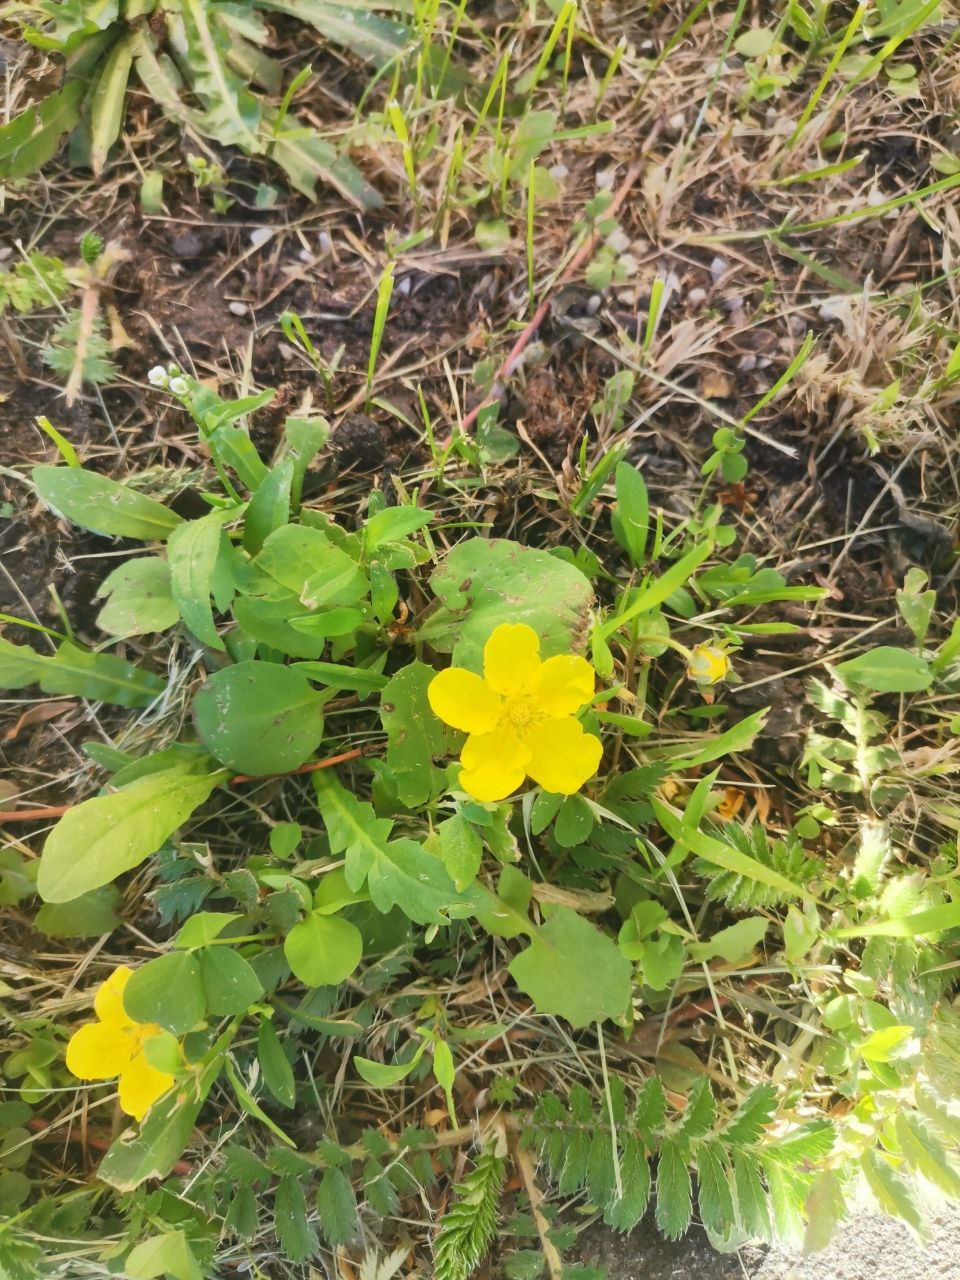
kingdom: Plantae
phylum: Tracheophyta
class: Magnoliopsida
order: Rosales
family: Rosaceae
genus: Argentina
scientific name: Argentina anserina
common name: Common silverweed
